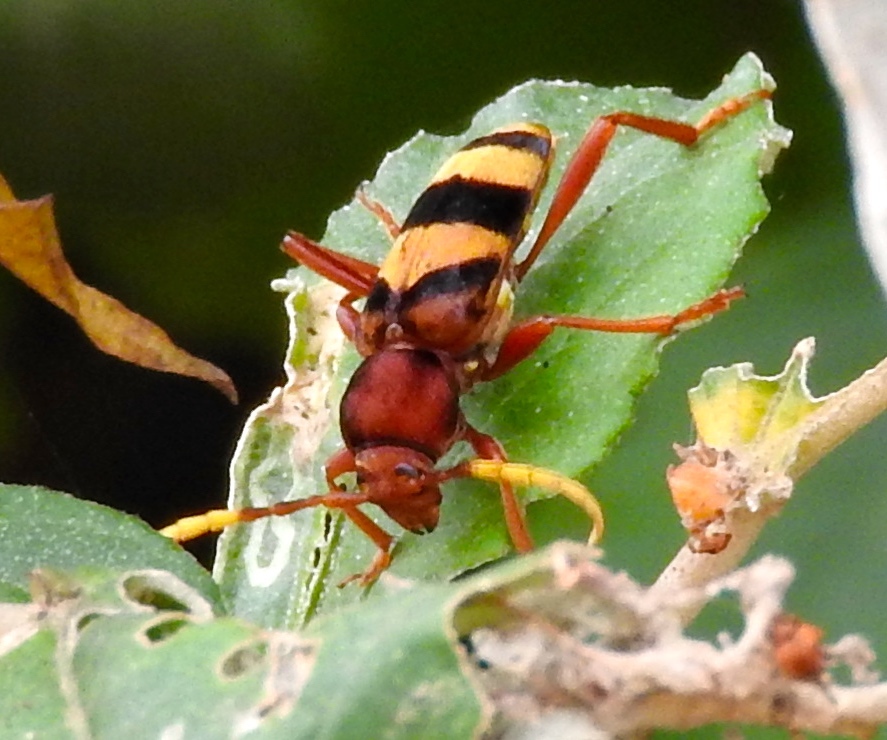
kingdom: Animalia
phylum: Arthropoda
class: Insecta
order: Coleoptera
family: Cerambycidae
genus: Dexithea
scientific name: Dexithea klugii
